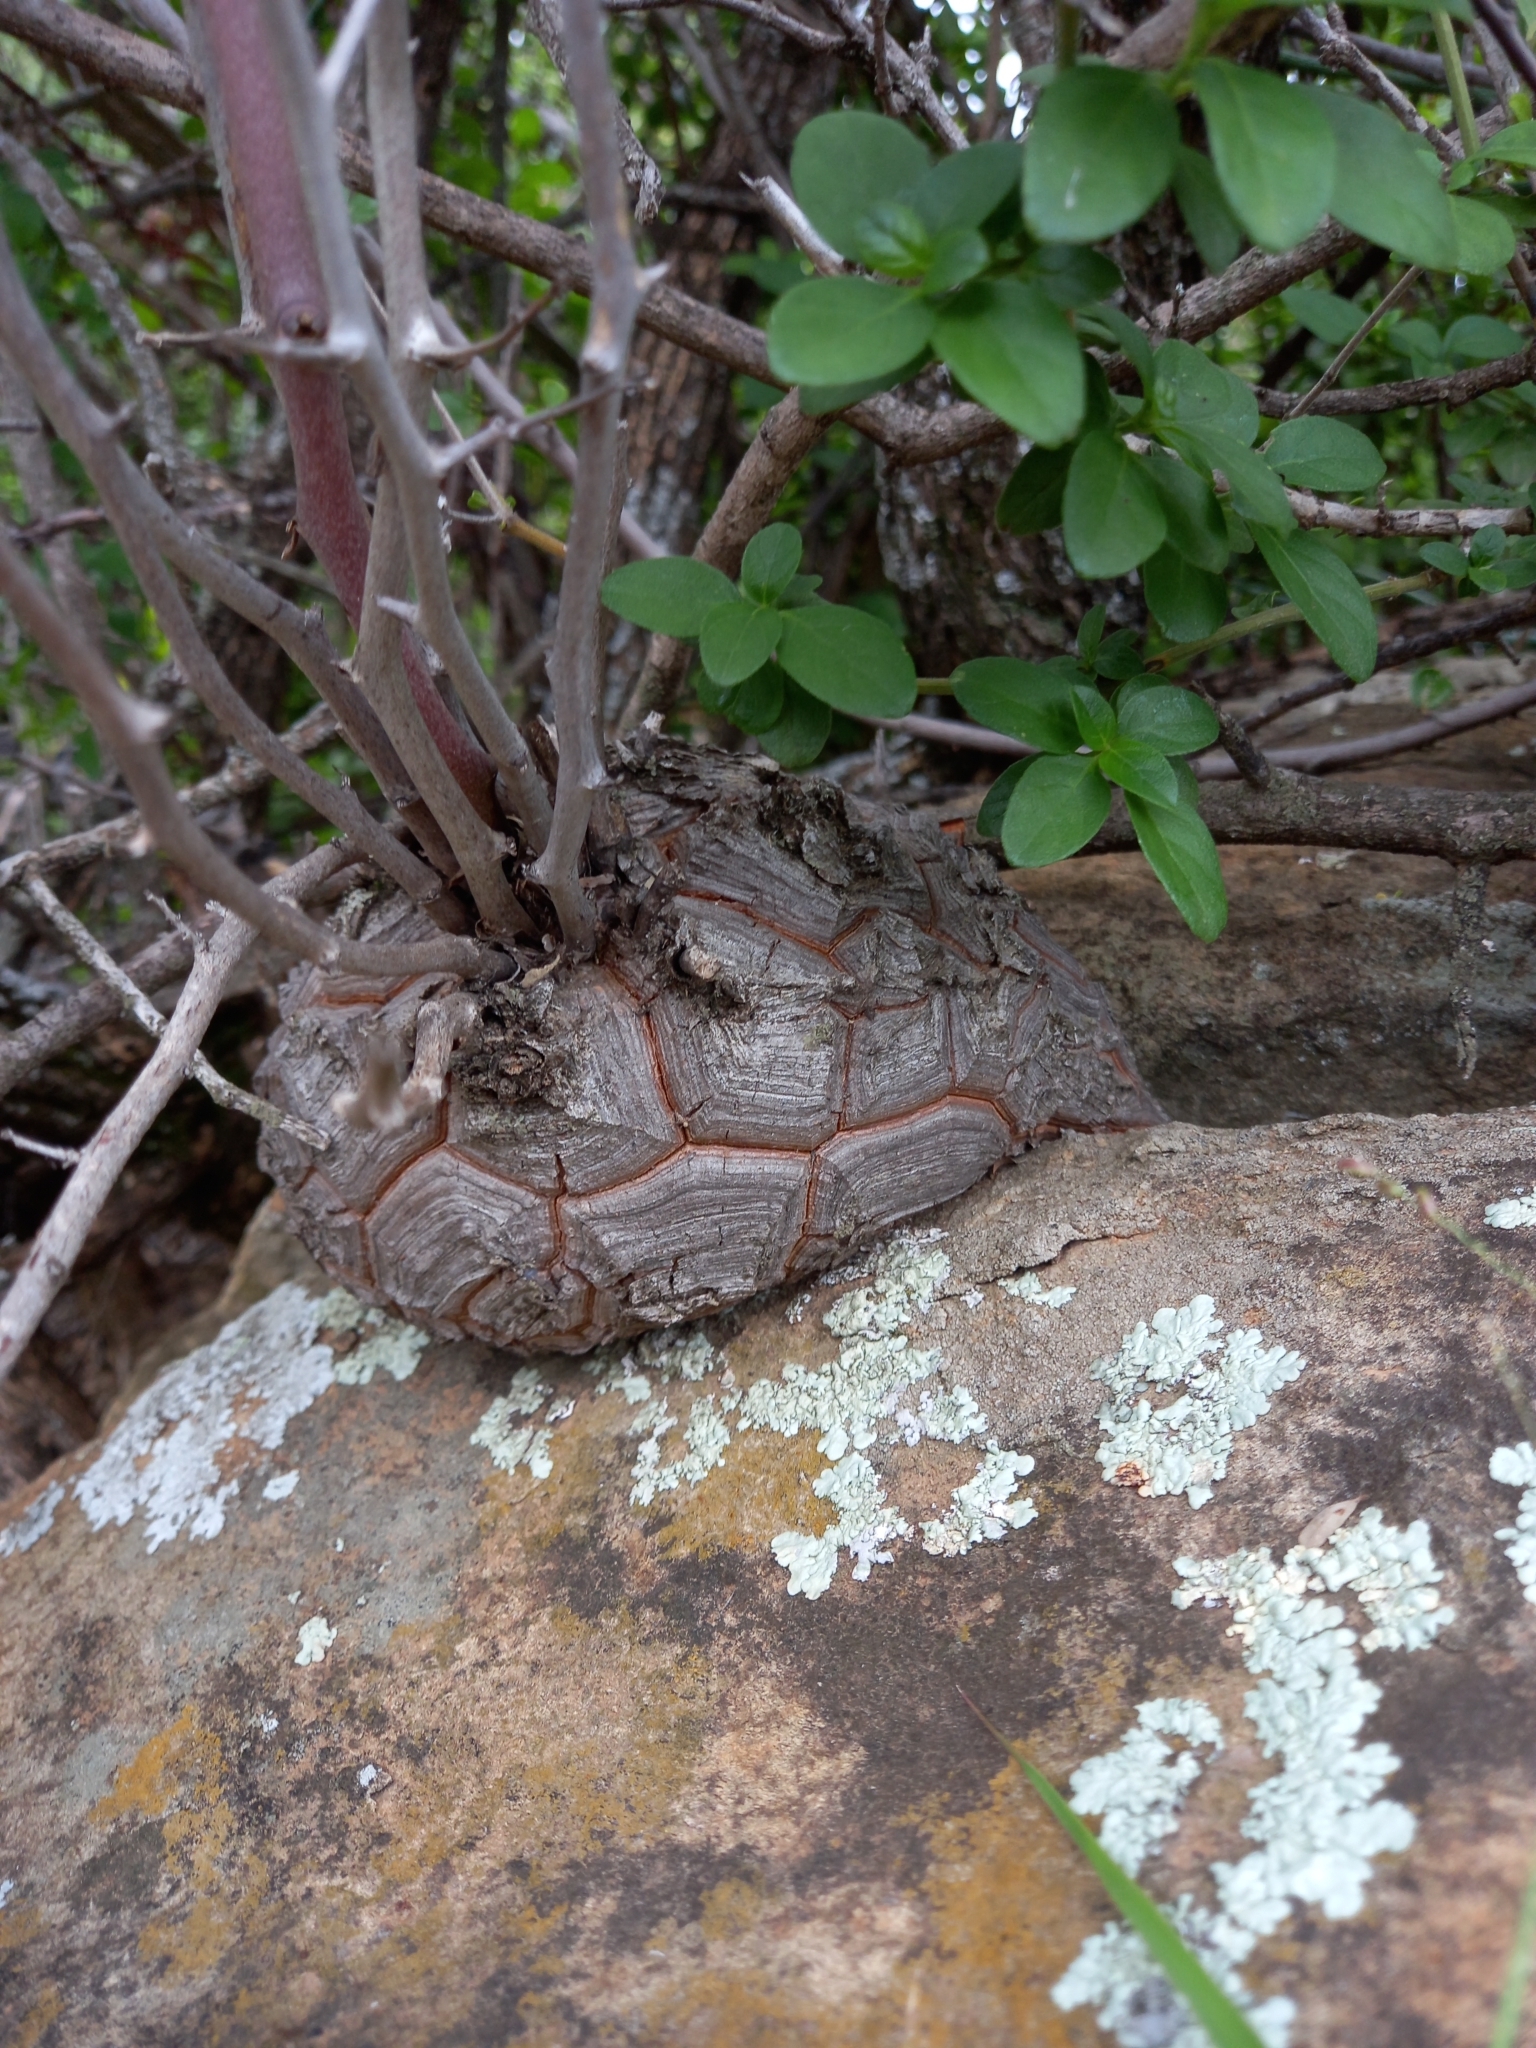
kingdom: Plantae
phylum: Tracheophyta
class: Liliopsida
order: Dioscoreales
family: Dioscoreaceae
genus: Dioscorea
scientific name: Dioscorea elephantipes
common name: Elephant's foot yam
